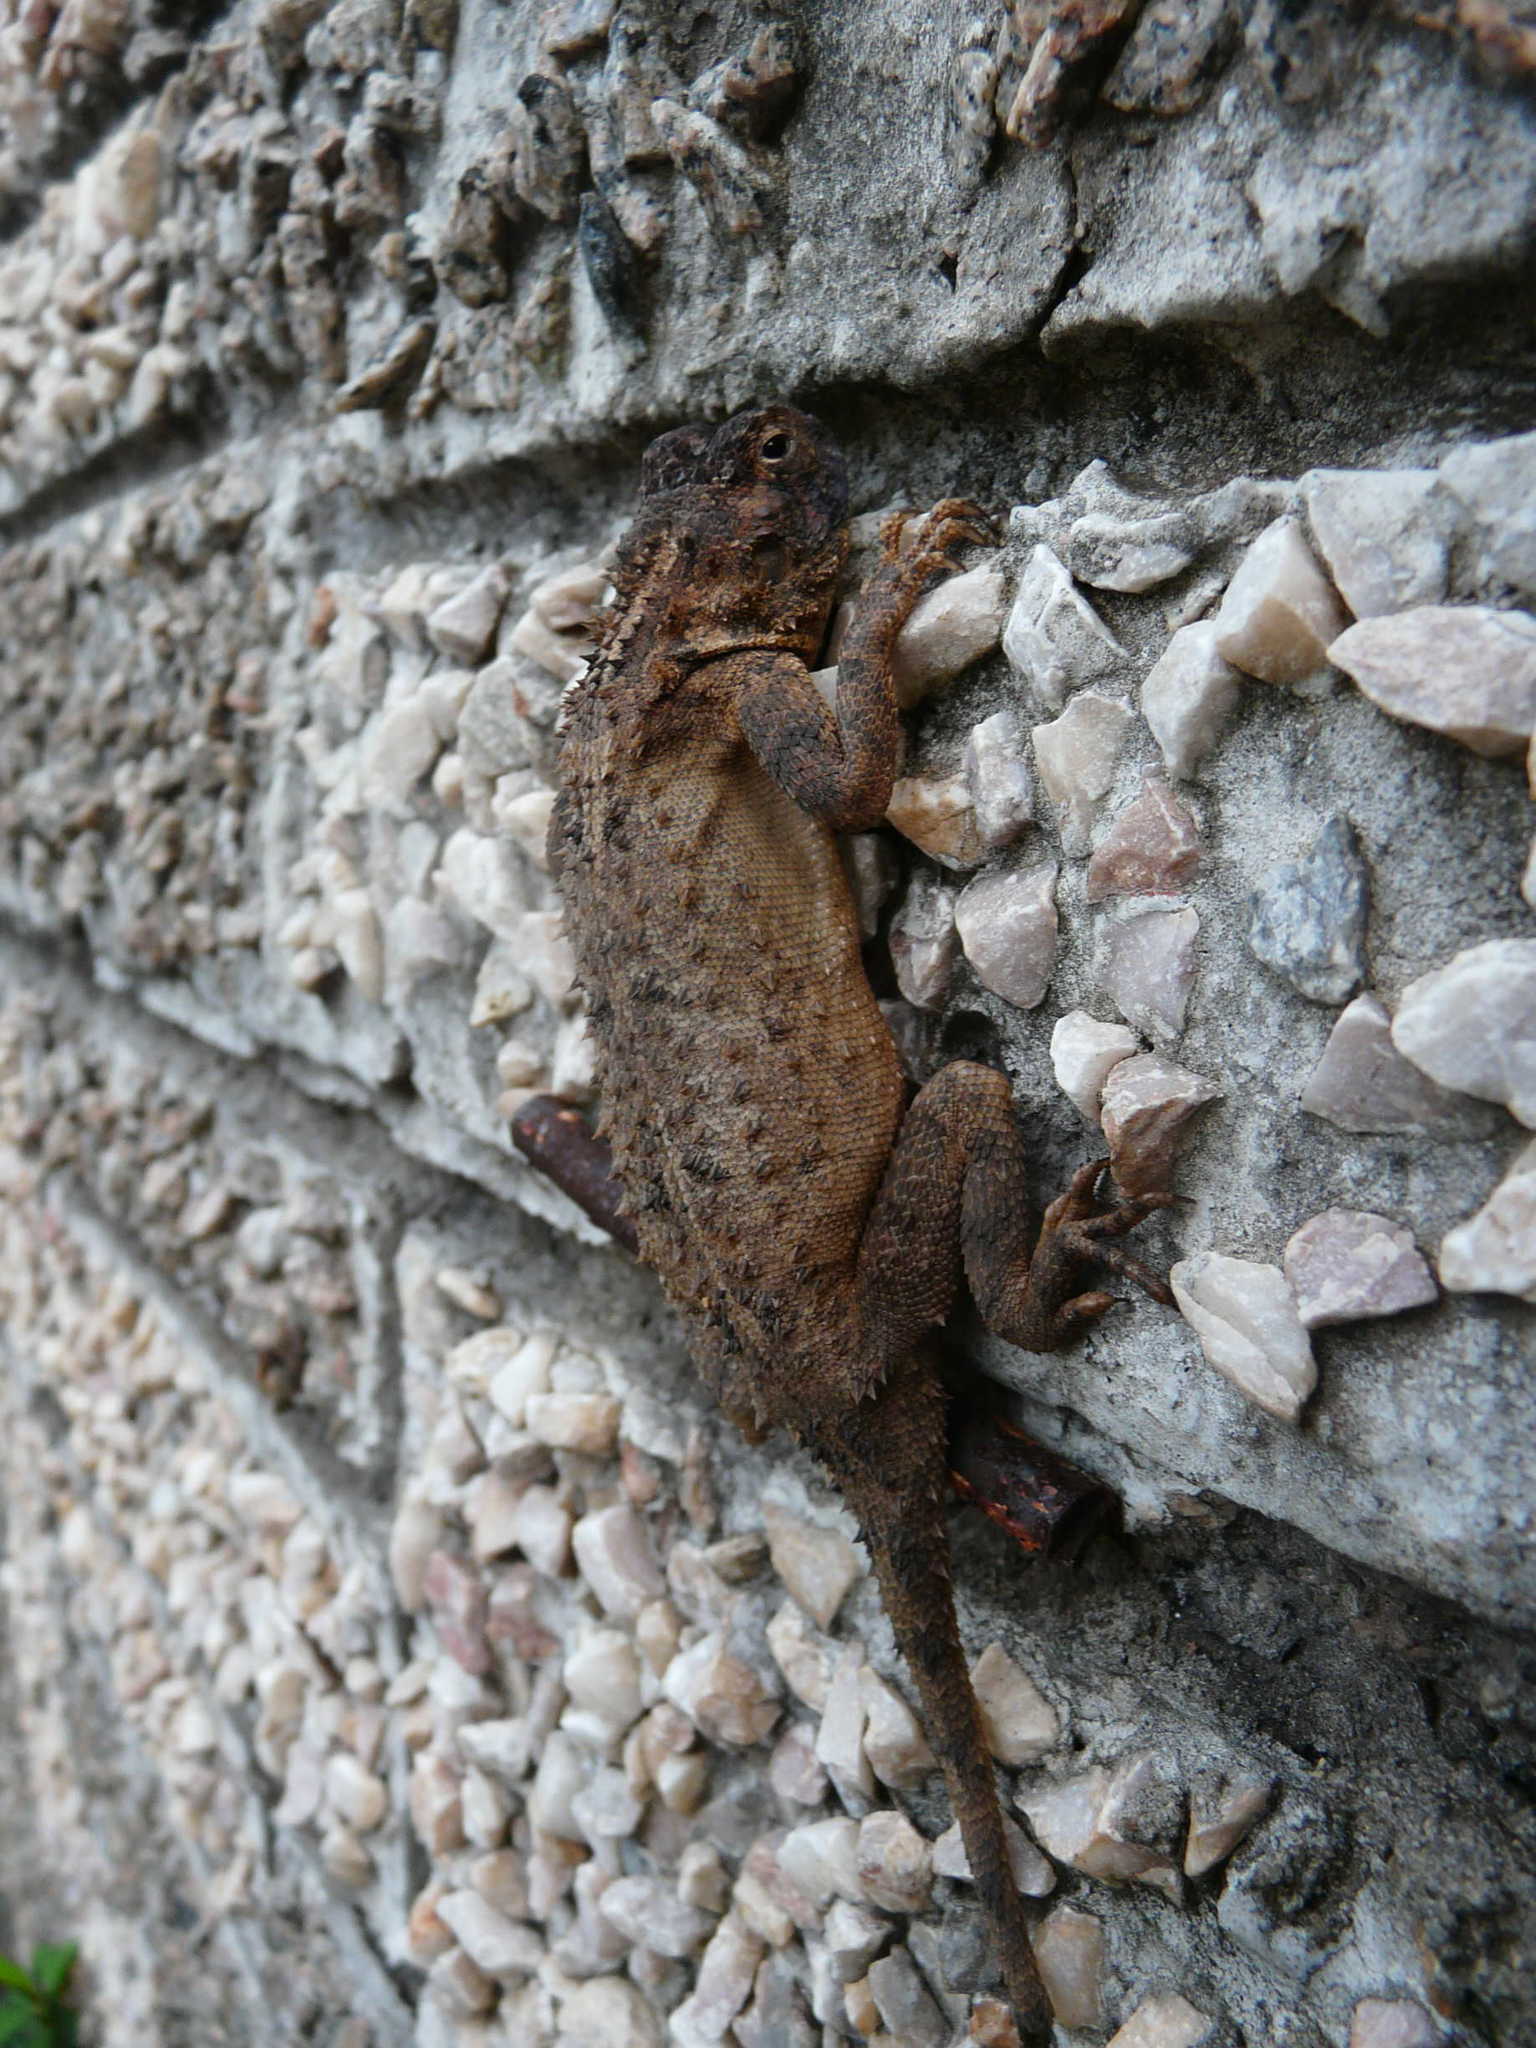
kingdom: Animalia
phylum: Chordata
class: Squamata
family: Agamidae
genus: Agama
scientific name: Agama armata
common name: Northern ground agama
